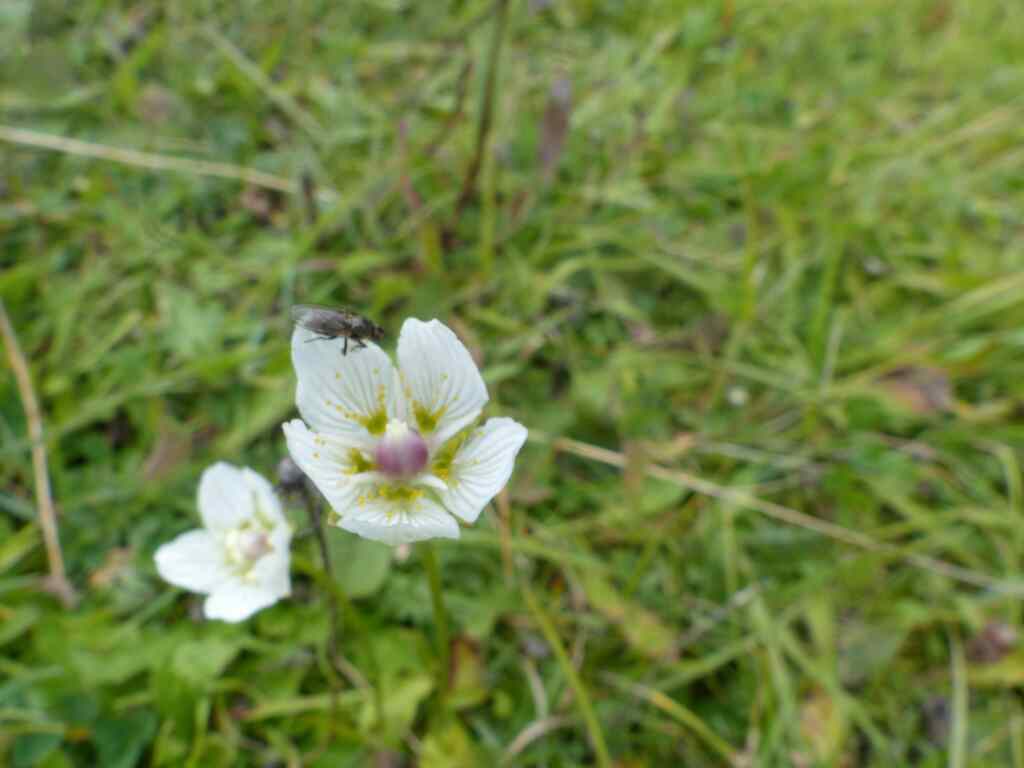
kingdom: Plantae
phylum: Tracheophyta
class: Magnoliopsida
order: Celastrales
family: Parnassiaceae
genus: Parnassia
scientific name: Parnassia palustris
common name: Grass-of-parnassus
